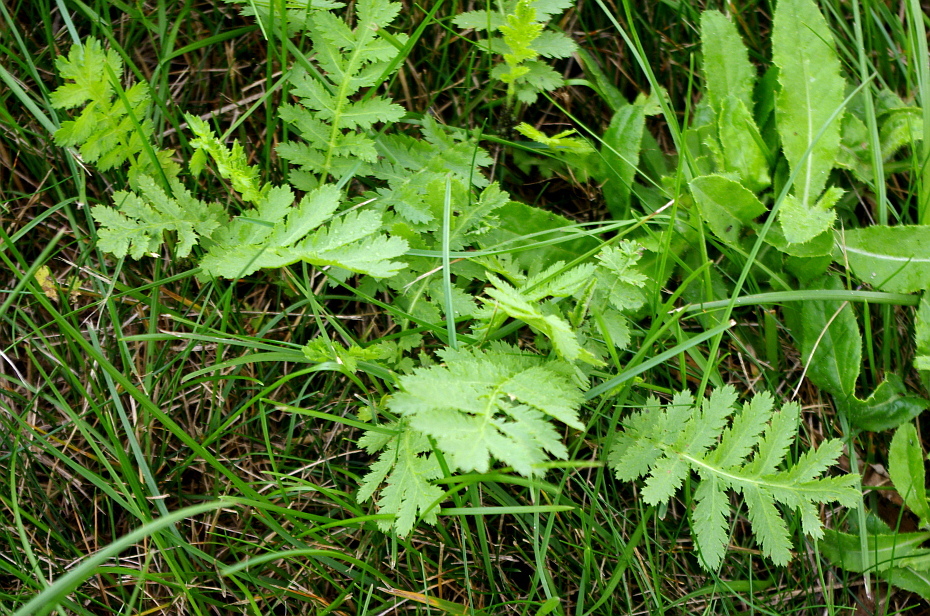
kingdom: Plantae
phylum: Tracheophyta
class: Magnoliopsida
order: Asterales
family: Asteraceae
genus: Tanacetum
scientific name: Tanacetum vulgare
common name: Common tansy
